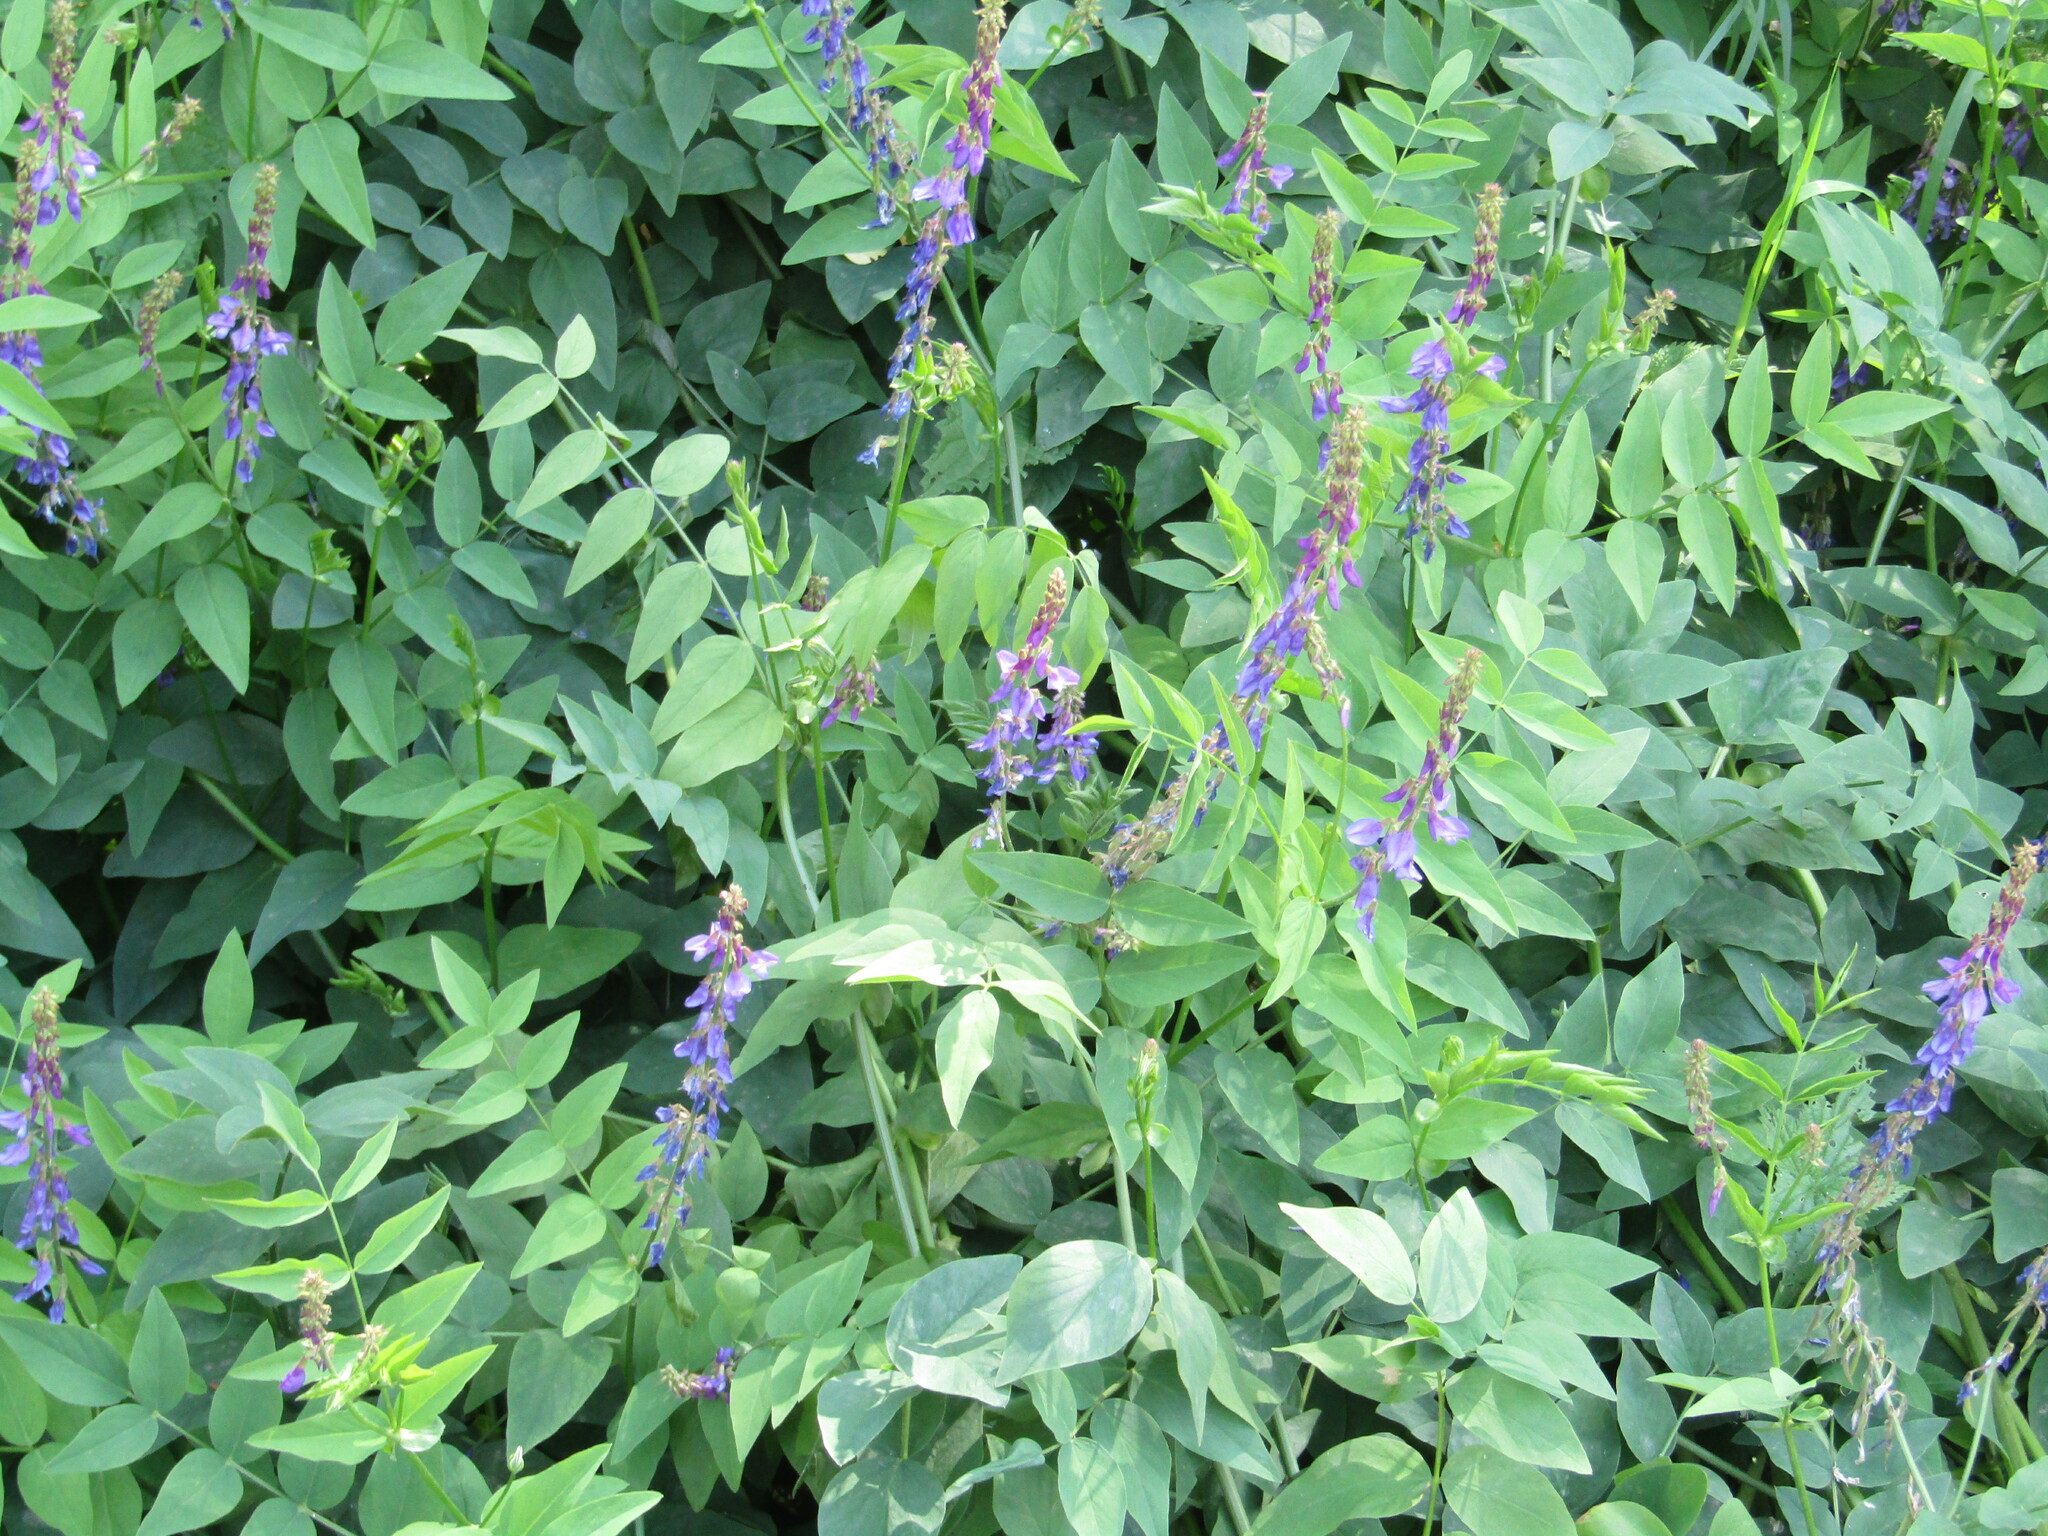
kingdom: Plantae
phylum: Tracheophyta
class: Magnoliopsida
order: Fabales
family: Fabaceae
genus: Galega
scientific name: Galega orientalis
